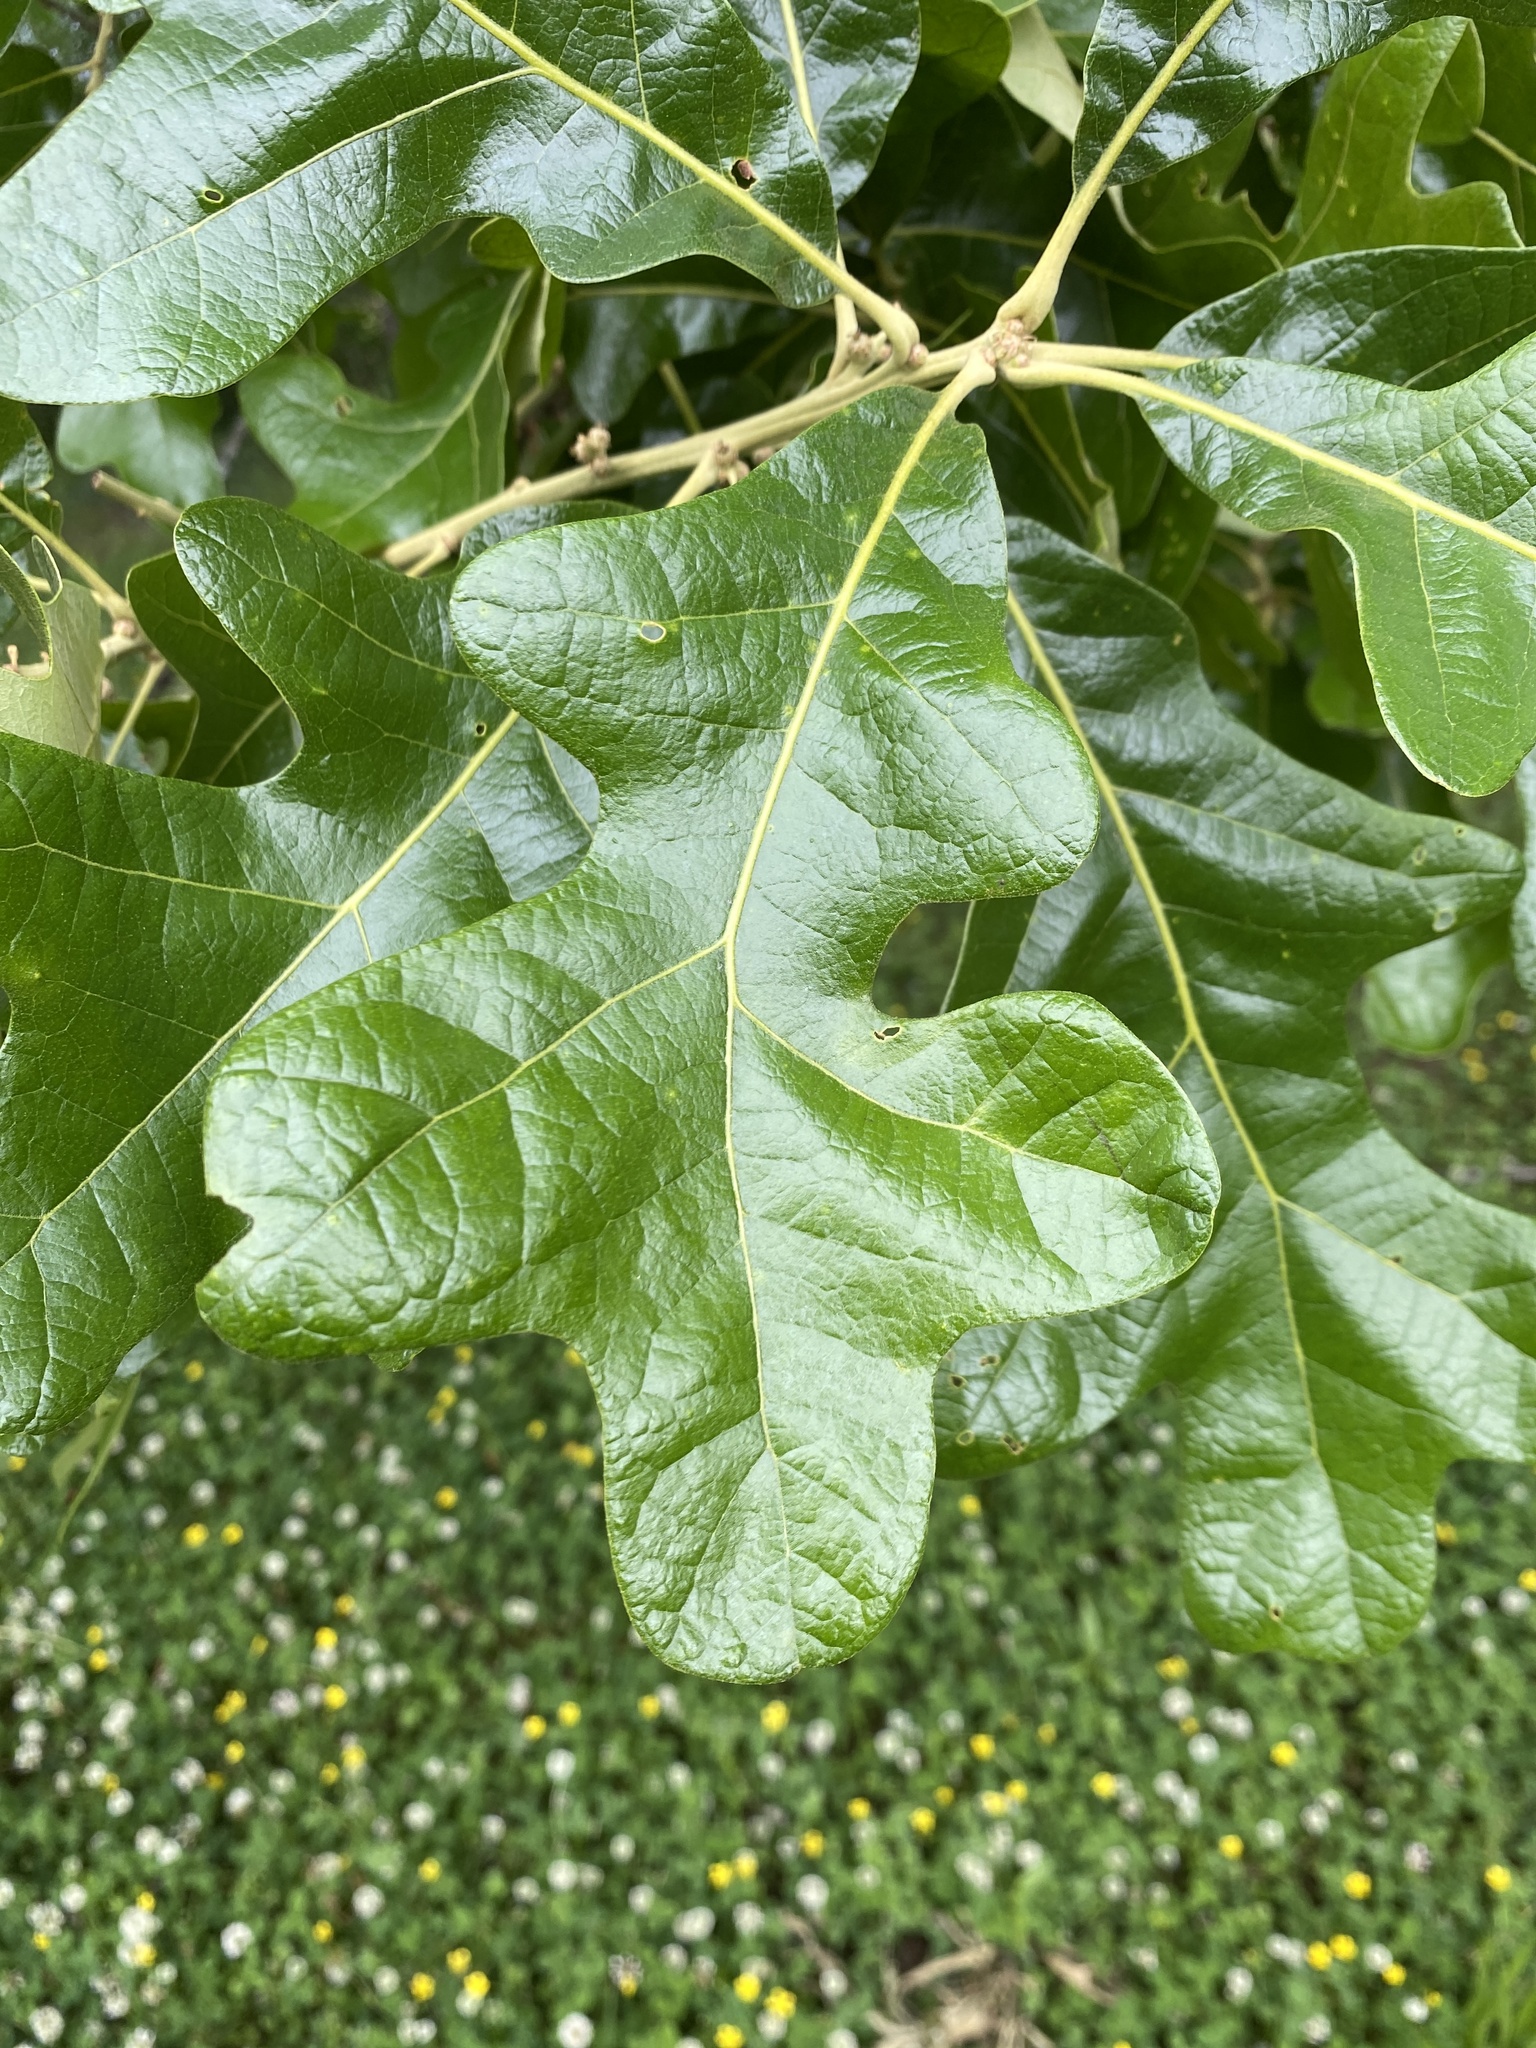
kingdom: Plantae
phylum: Tracheophyta
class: Magnoliopsida
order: Fagales
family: Fagaceae
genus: Quercus
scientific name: Quercus stellata
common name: Post oak
